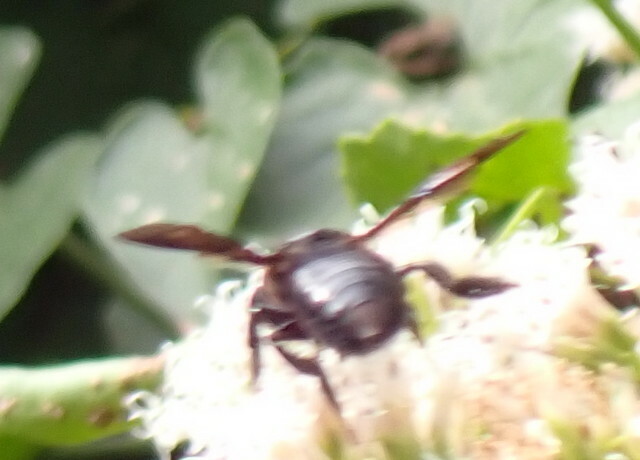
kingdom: Animalia
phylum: Arthropoda
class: Insecta
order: Hymenoptera
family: Megachilidae
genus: Megachile
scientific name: Megachile xylocopoides
